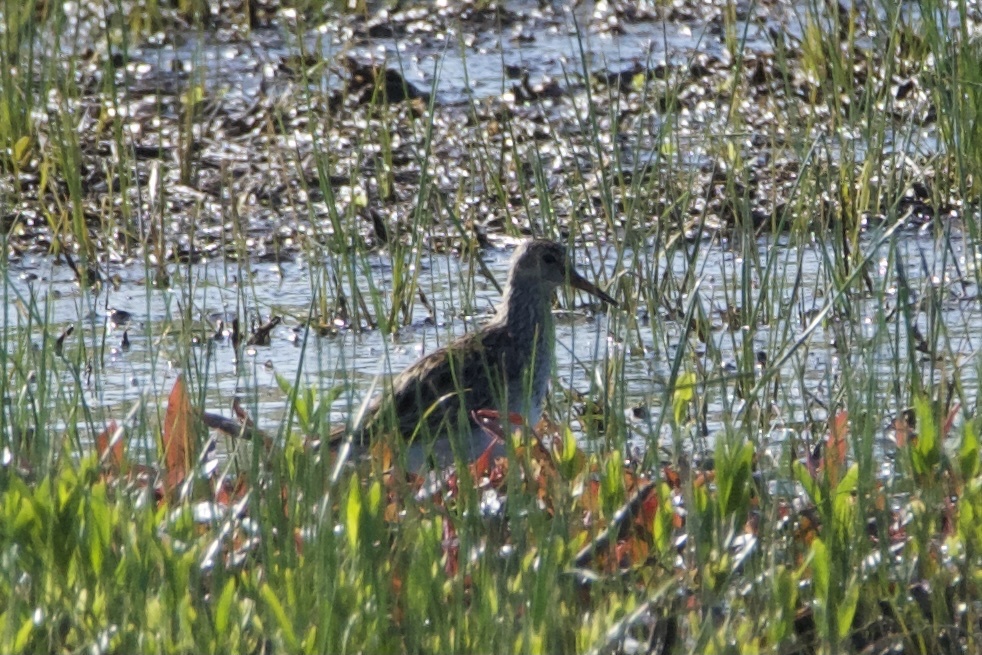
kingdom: Animalia
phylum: Chordata
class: Aves
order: Charadriiformes
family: Scolopacidae
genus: Calidris
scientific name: Calidris melanotos
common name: Pectoral sandpiper
